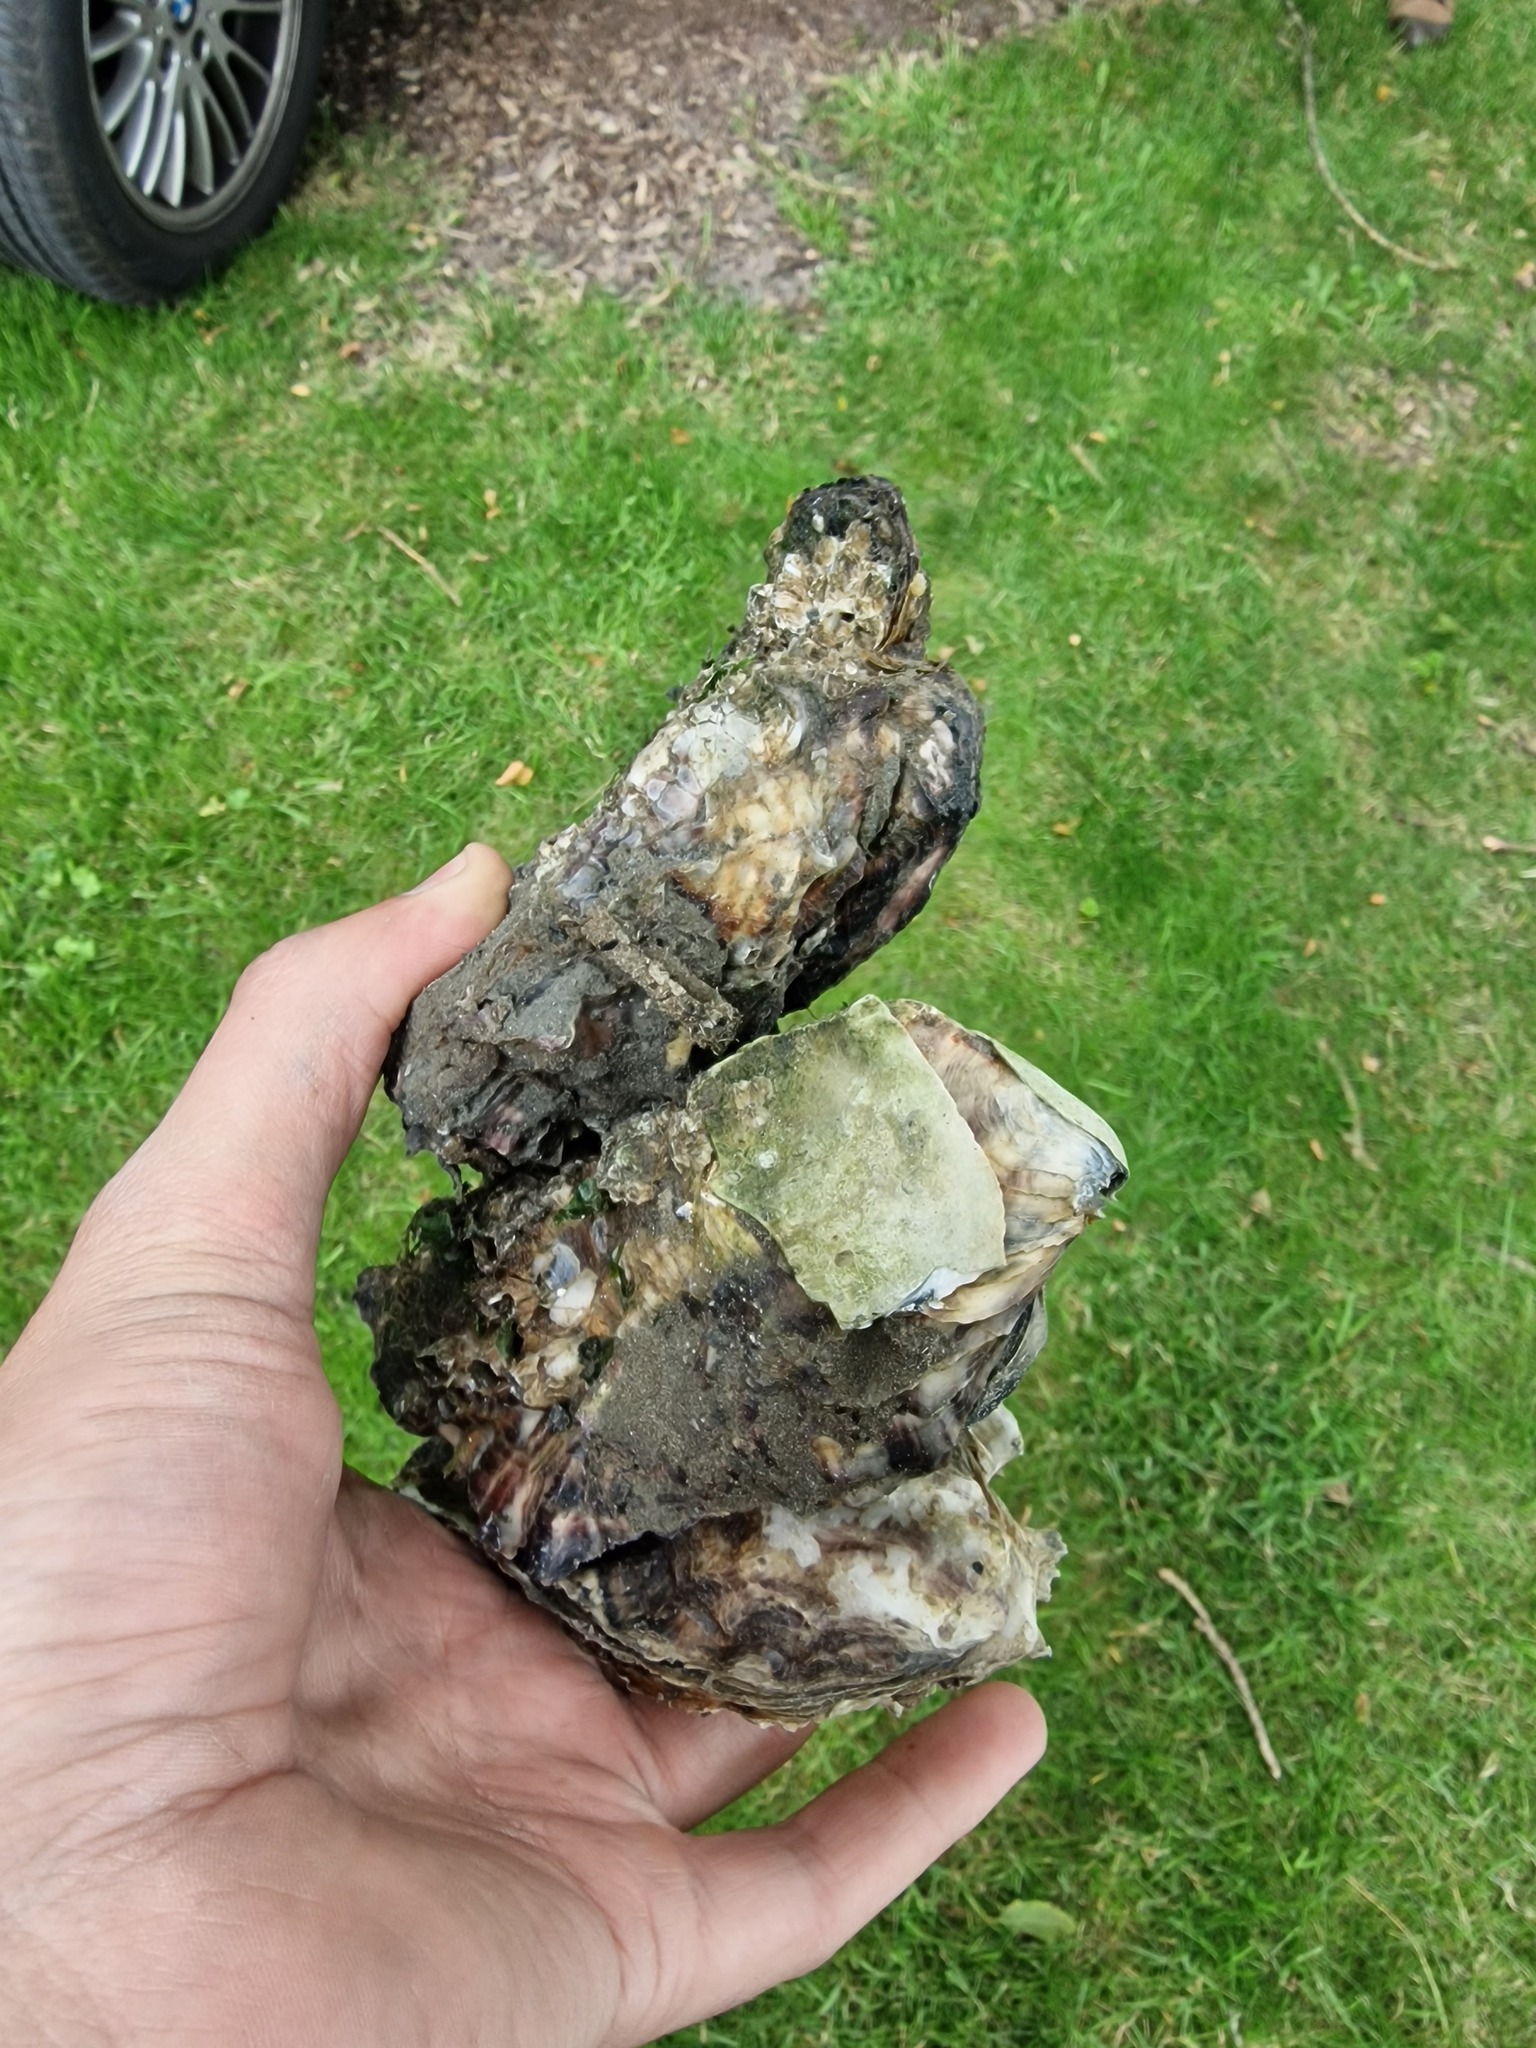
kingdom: Animalia
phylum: Mollusca
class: Bivalvia
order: Ostreida
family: Ostreidae
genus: Magallana
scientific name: Magallana gigas
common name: Pacific oyster
